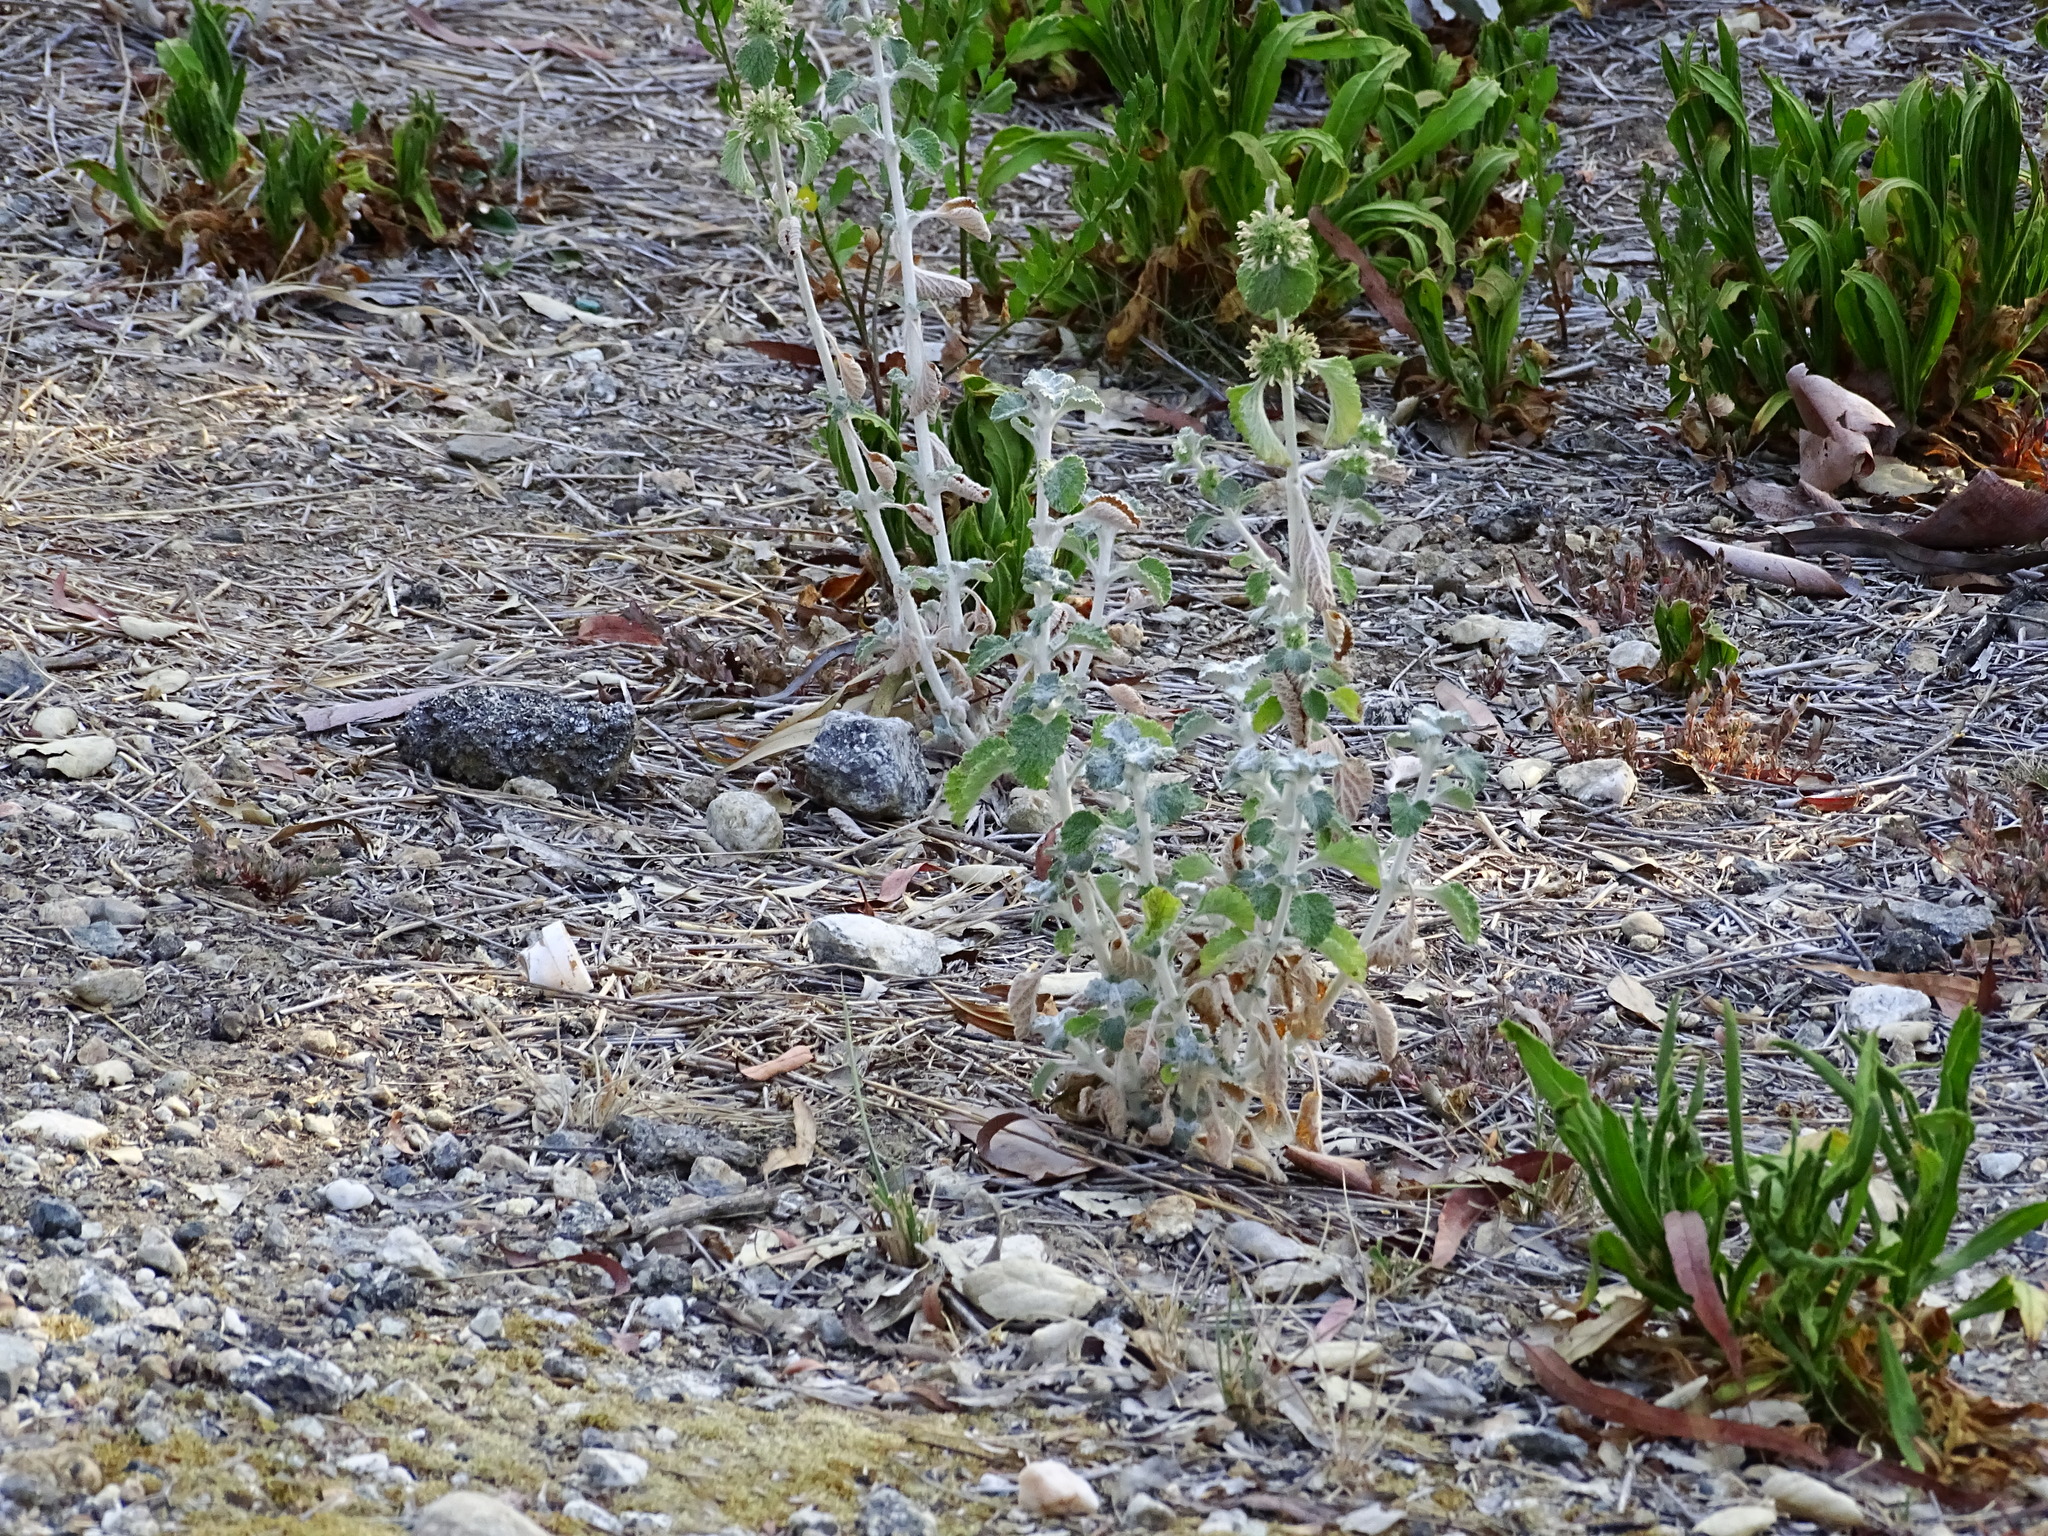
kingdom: Plantae
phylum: Tracheophyta
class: Magnoliopsida
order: Lamiales
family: Lamiaceae
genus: Marrubium
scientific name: Marrubium vulgare
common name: Horehound
